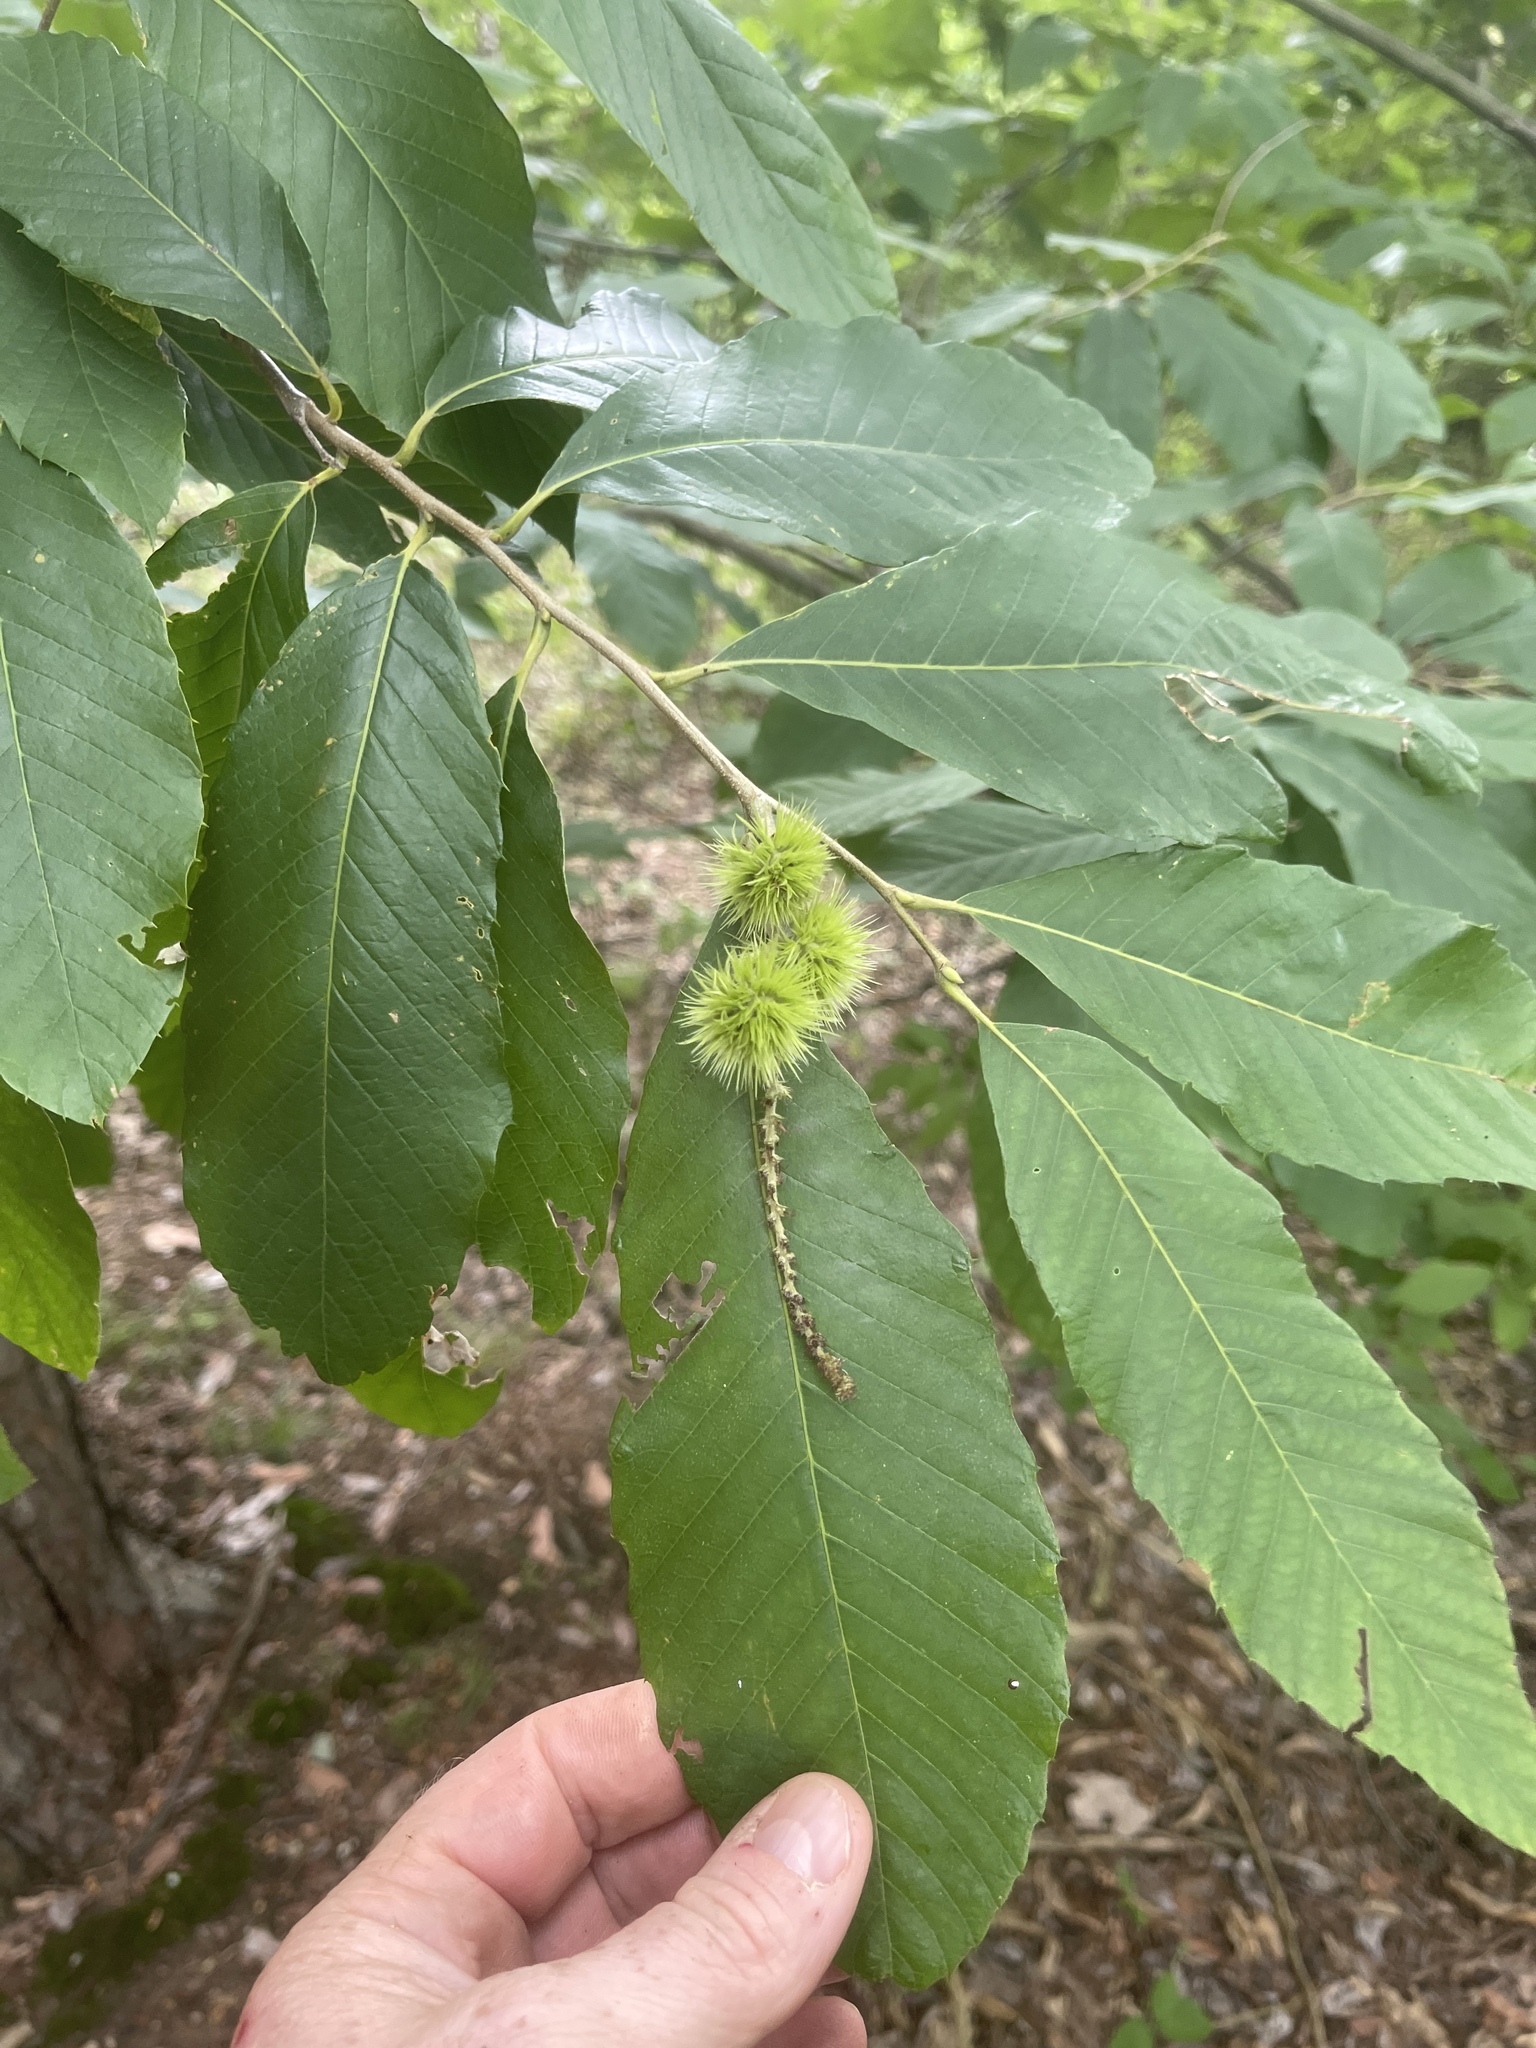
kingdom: Plantae
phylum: Tracheophyta
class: Magnoliopsida
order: Fagales
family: Fagaceae
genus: Castanea
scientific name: Castanea pumila
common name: Chinkapin
